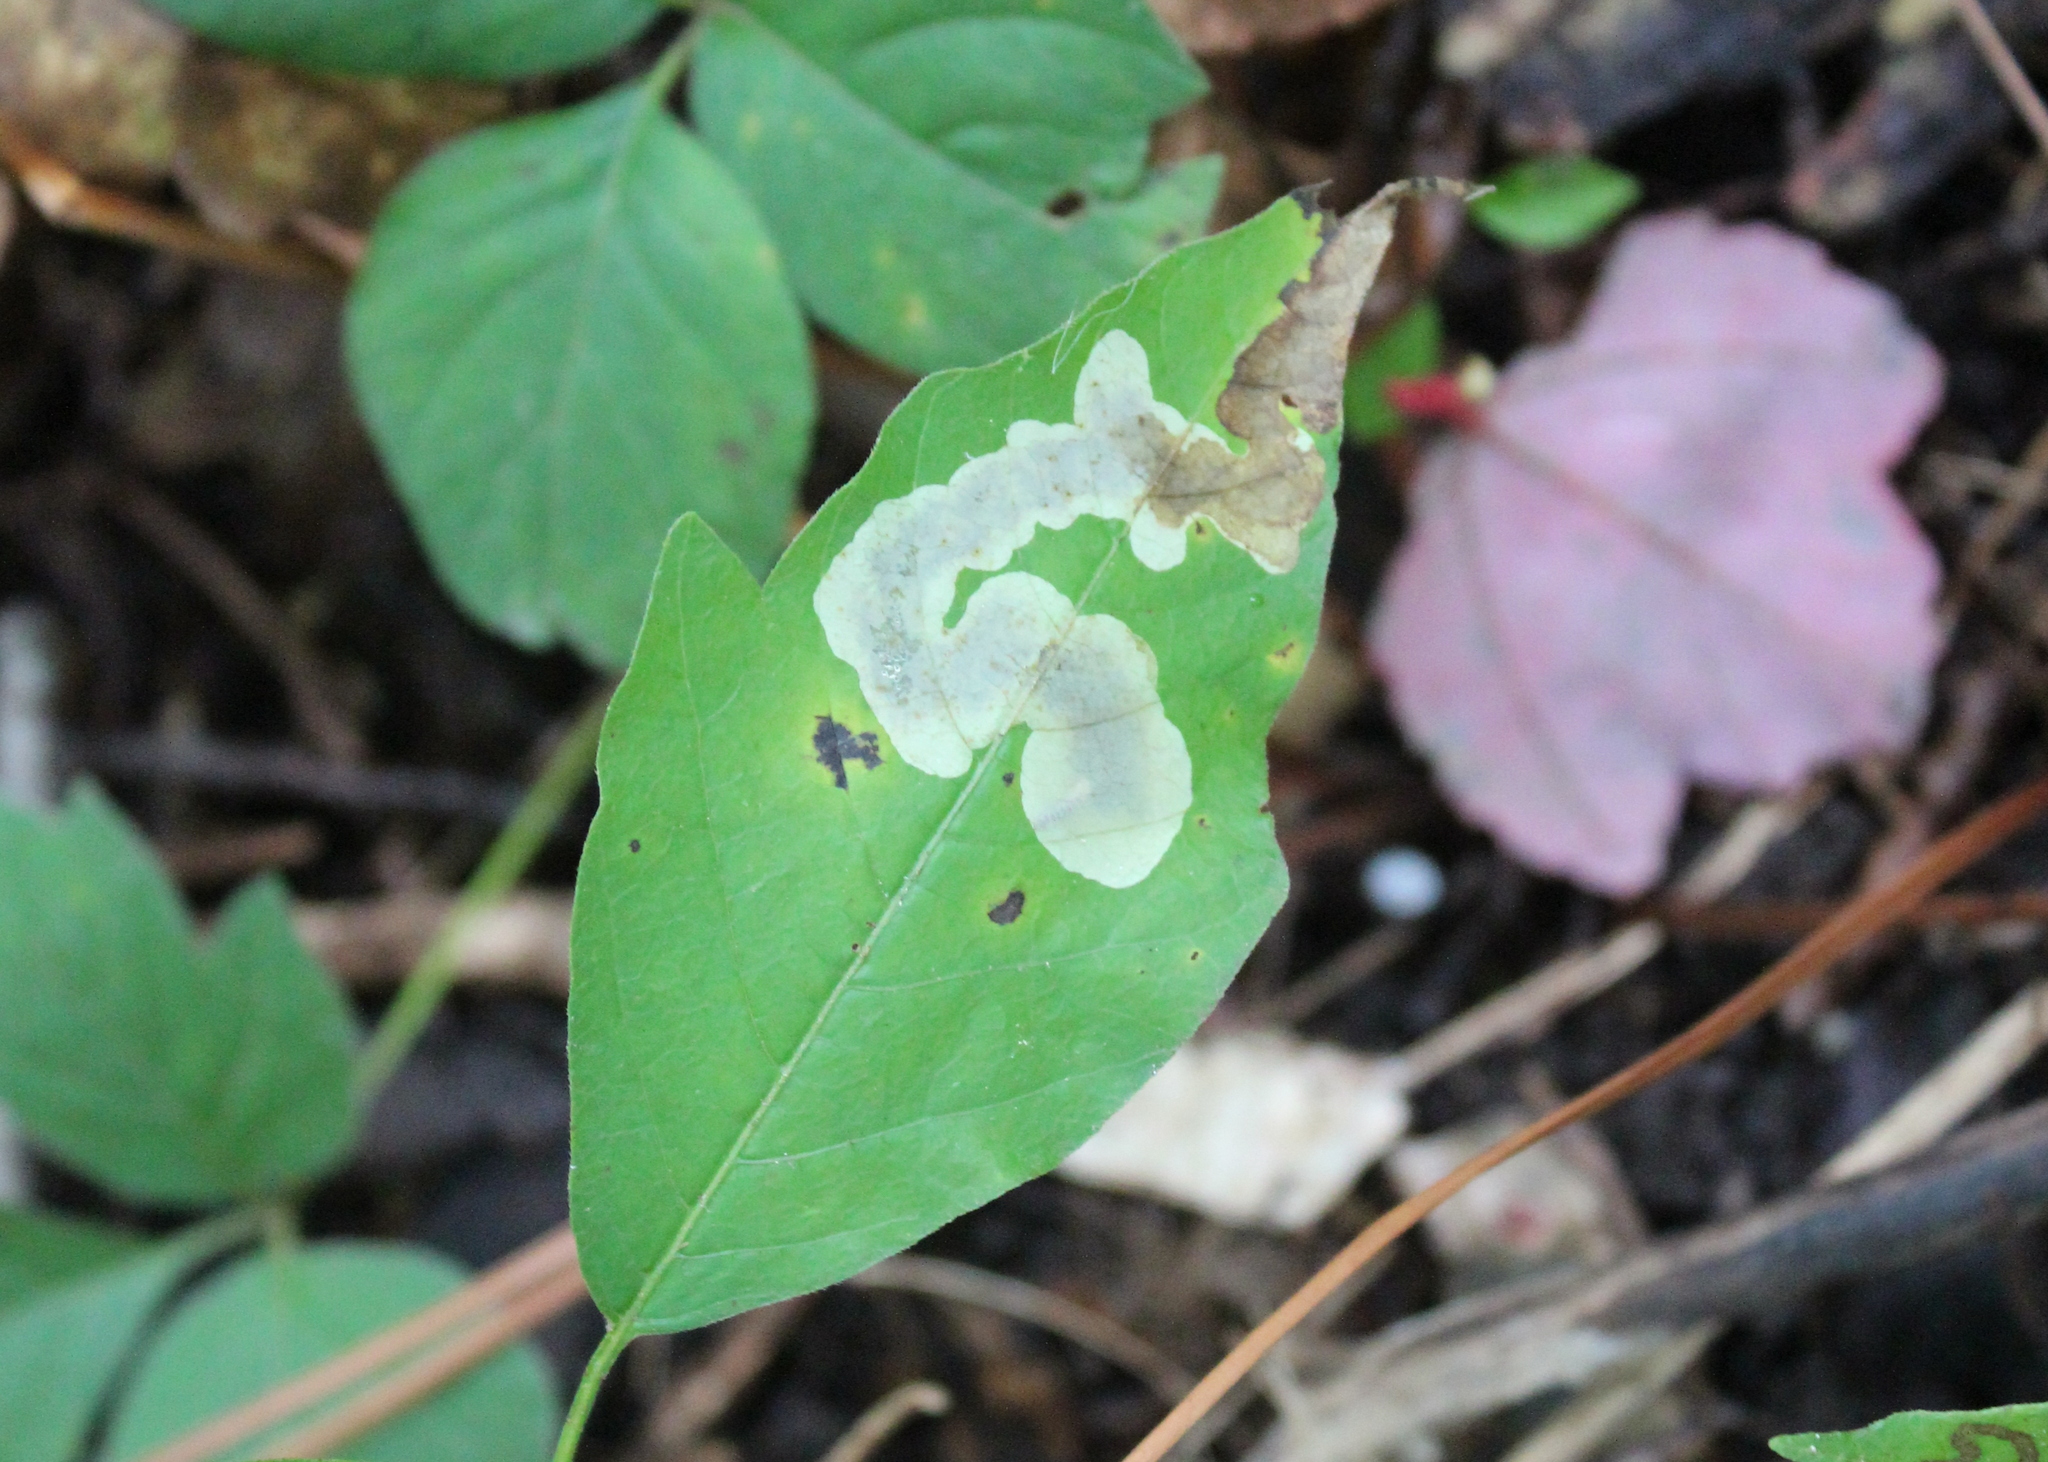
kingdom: Animalia
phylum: Arthropoda
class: Insecta
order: Lepidoptera
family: Gracillariidae
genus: Cameraria
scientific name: Cameraria guttifinitella
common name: Poison ivy leaf-miner moth
